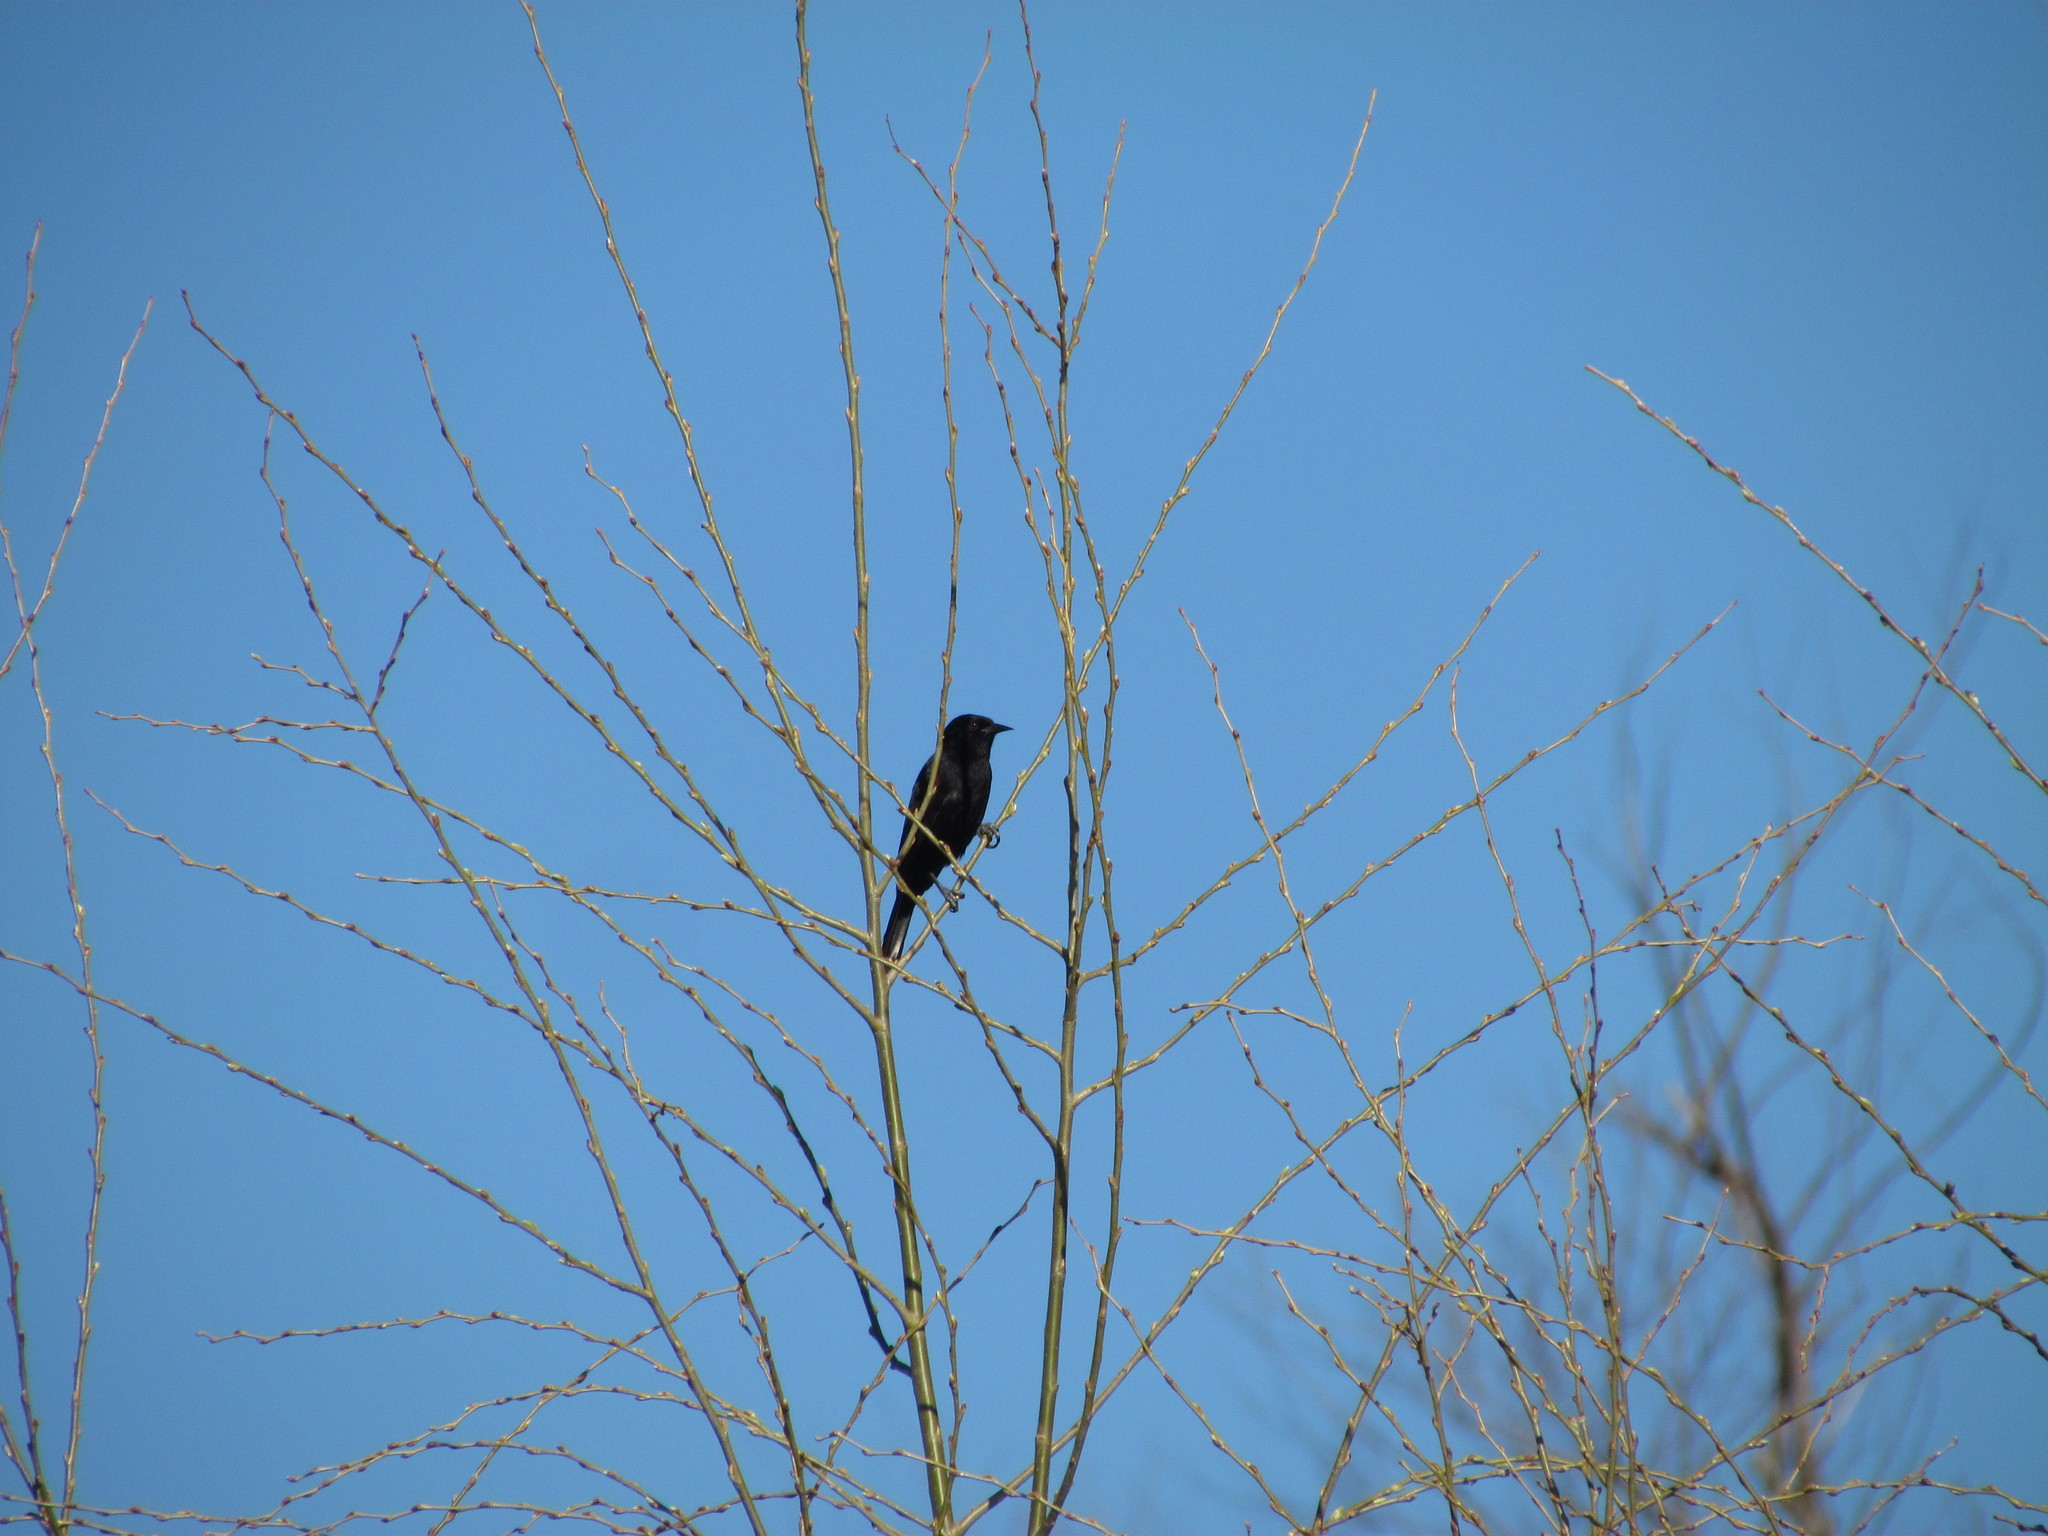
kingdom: Animalia
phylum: Chordata
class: Aves
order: Passeriformes
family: Icteridae
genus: Icterus
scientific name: Icterus cayanensis
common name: Epaulet oriole
